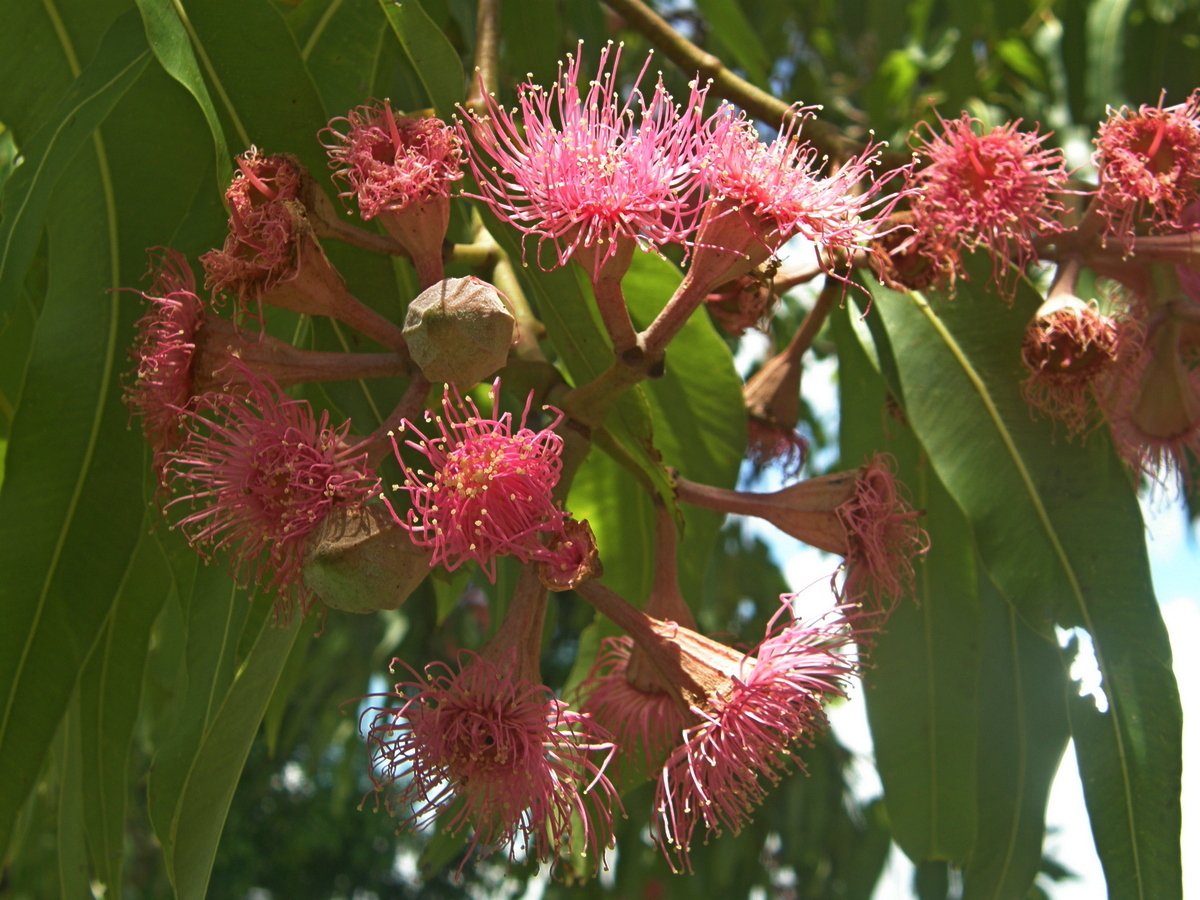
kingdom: Plantae
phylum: Tracheophyta
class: Magnoliopsida
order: Myrtales
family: Myrtaceae
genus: Corymbia
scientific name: Corymbia ptychocarpa
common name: Spring-bloodwood
